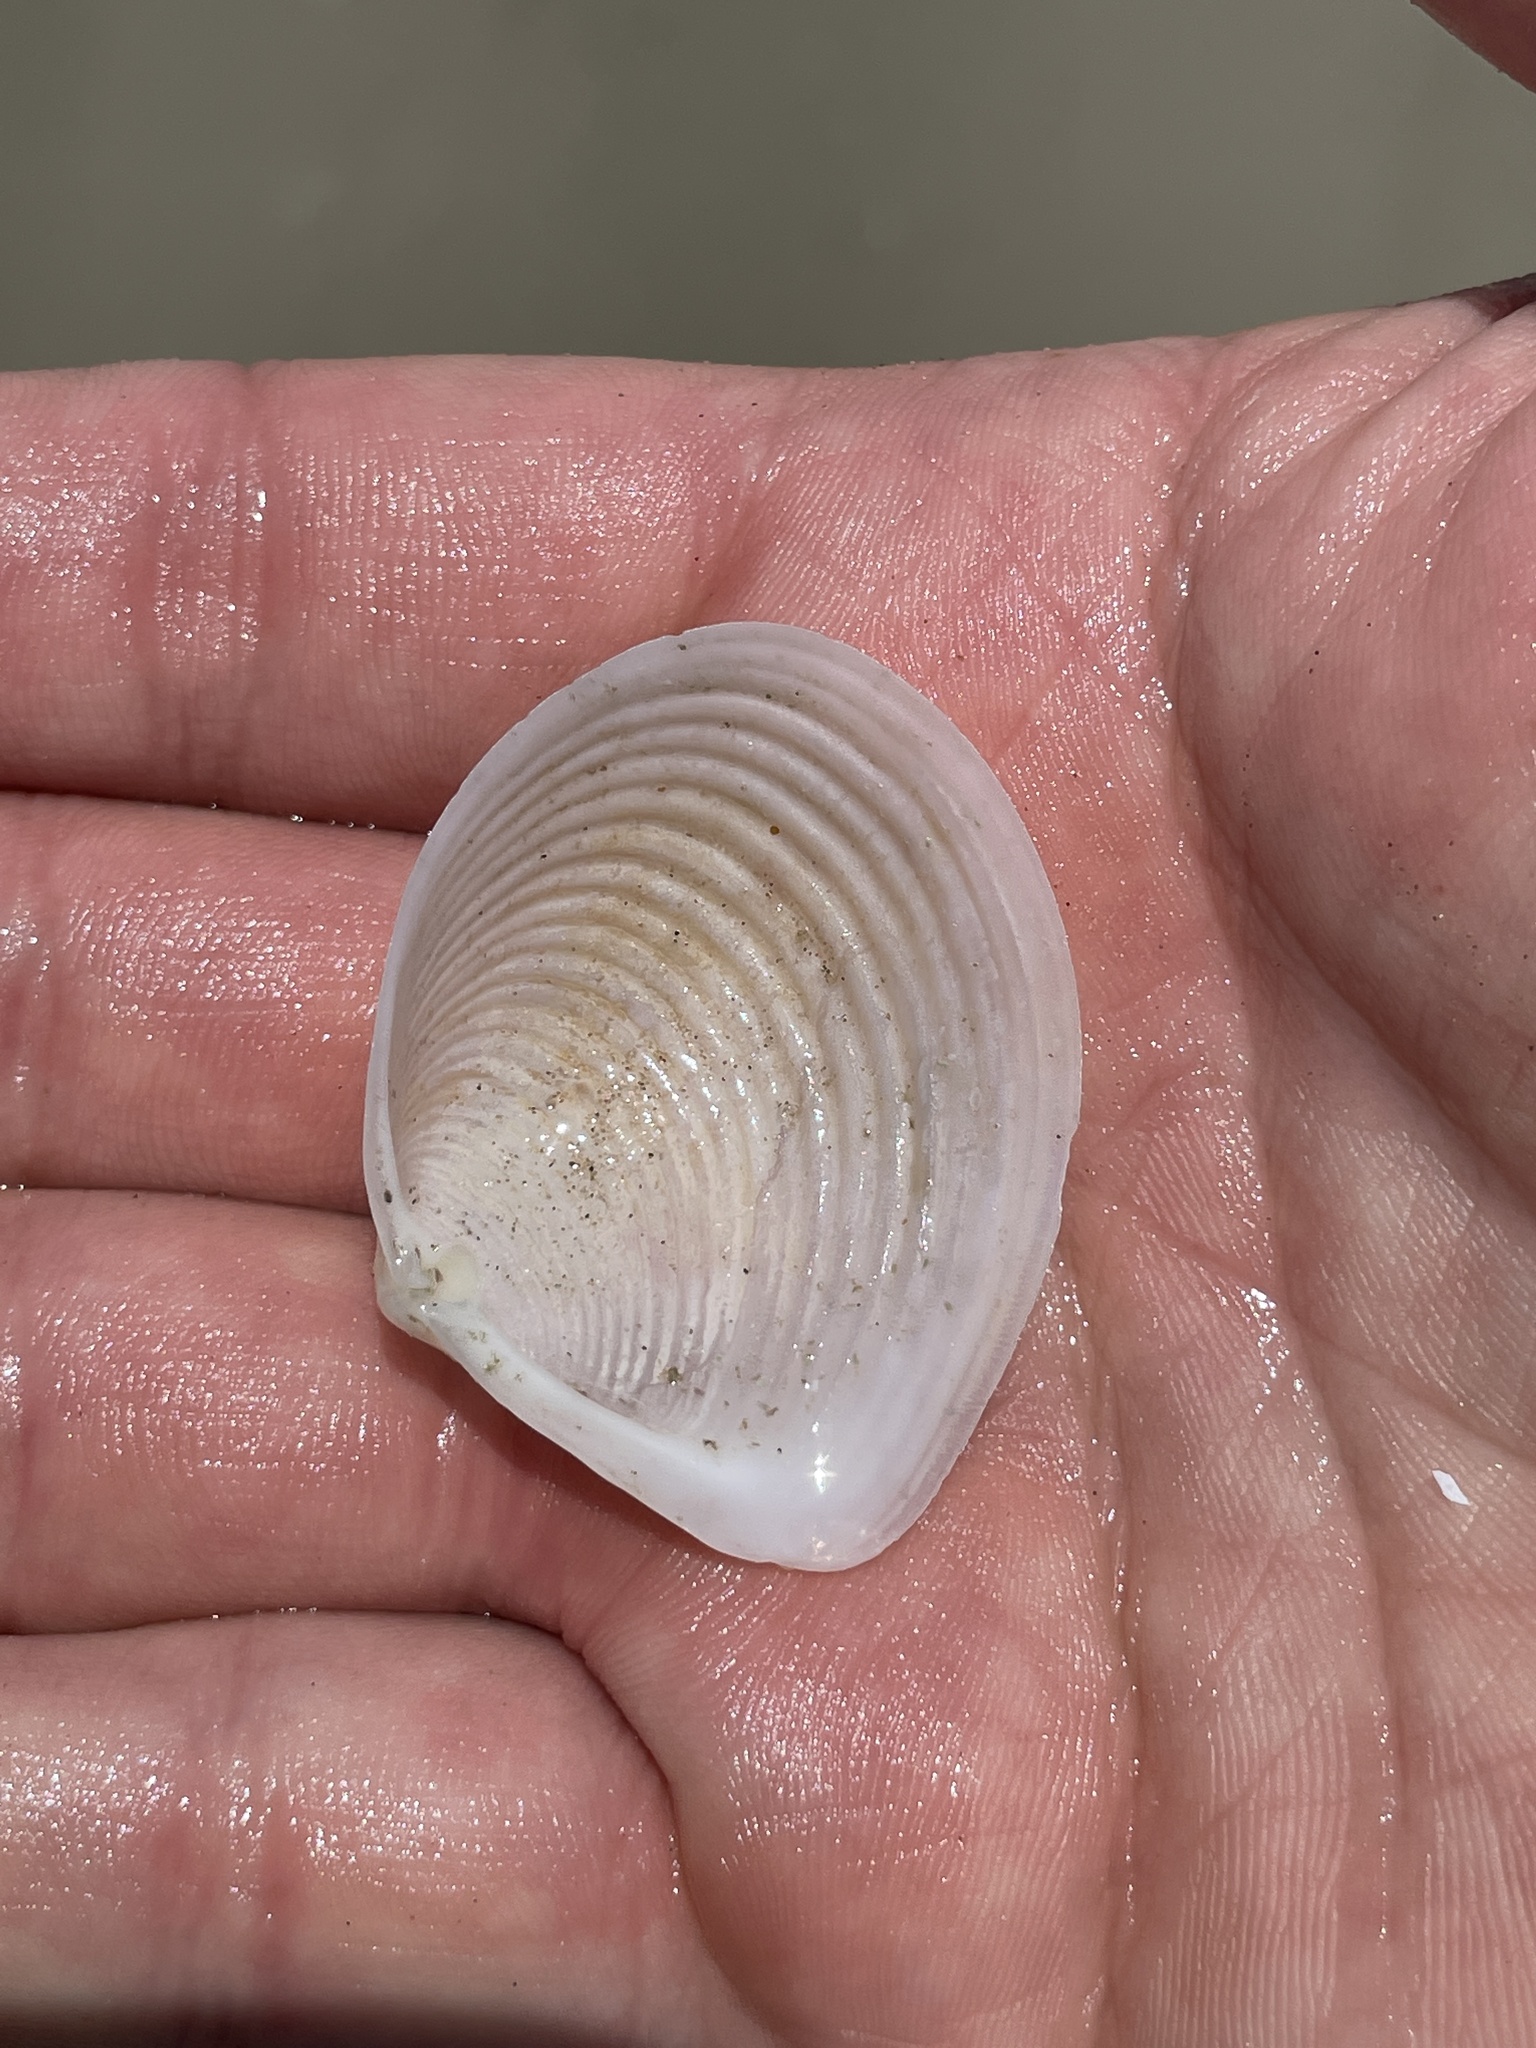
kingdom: Animalia
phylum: Mollusca
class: Bivalvia
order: Venerida
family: Anatinellidae
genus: Raeta
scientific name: Raeta plicatella
